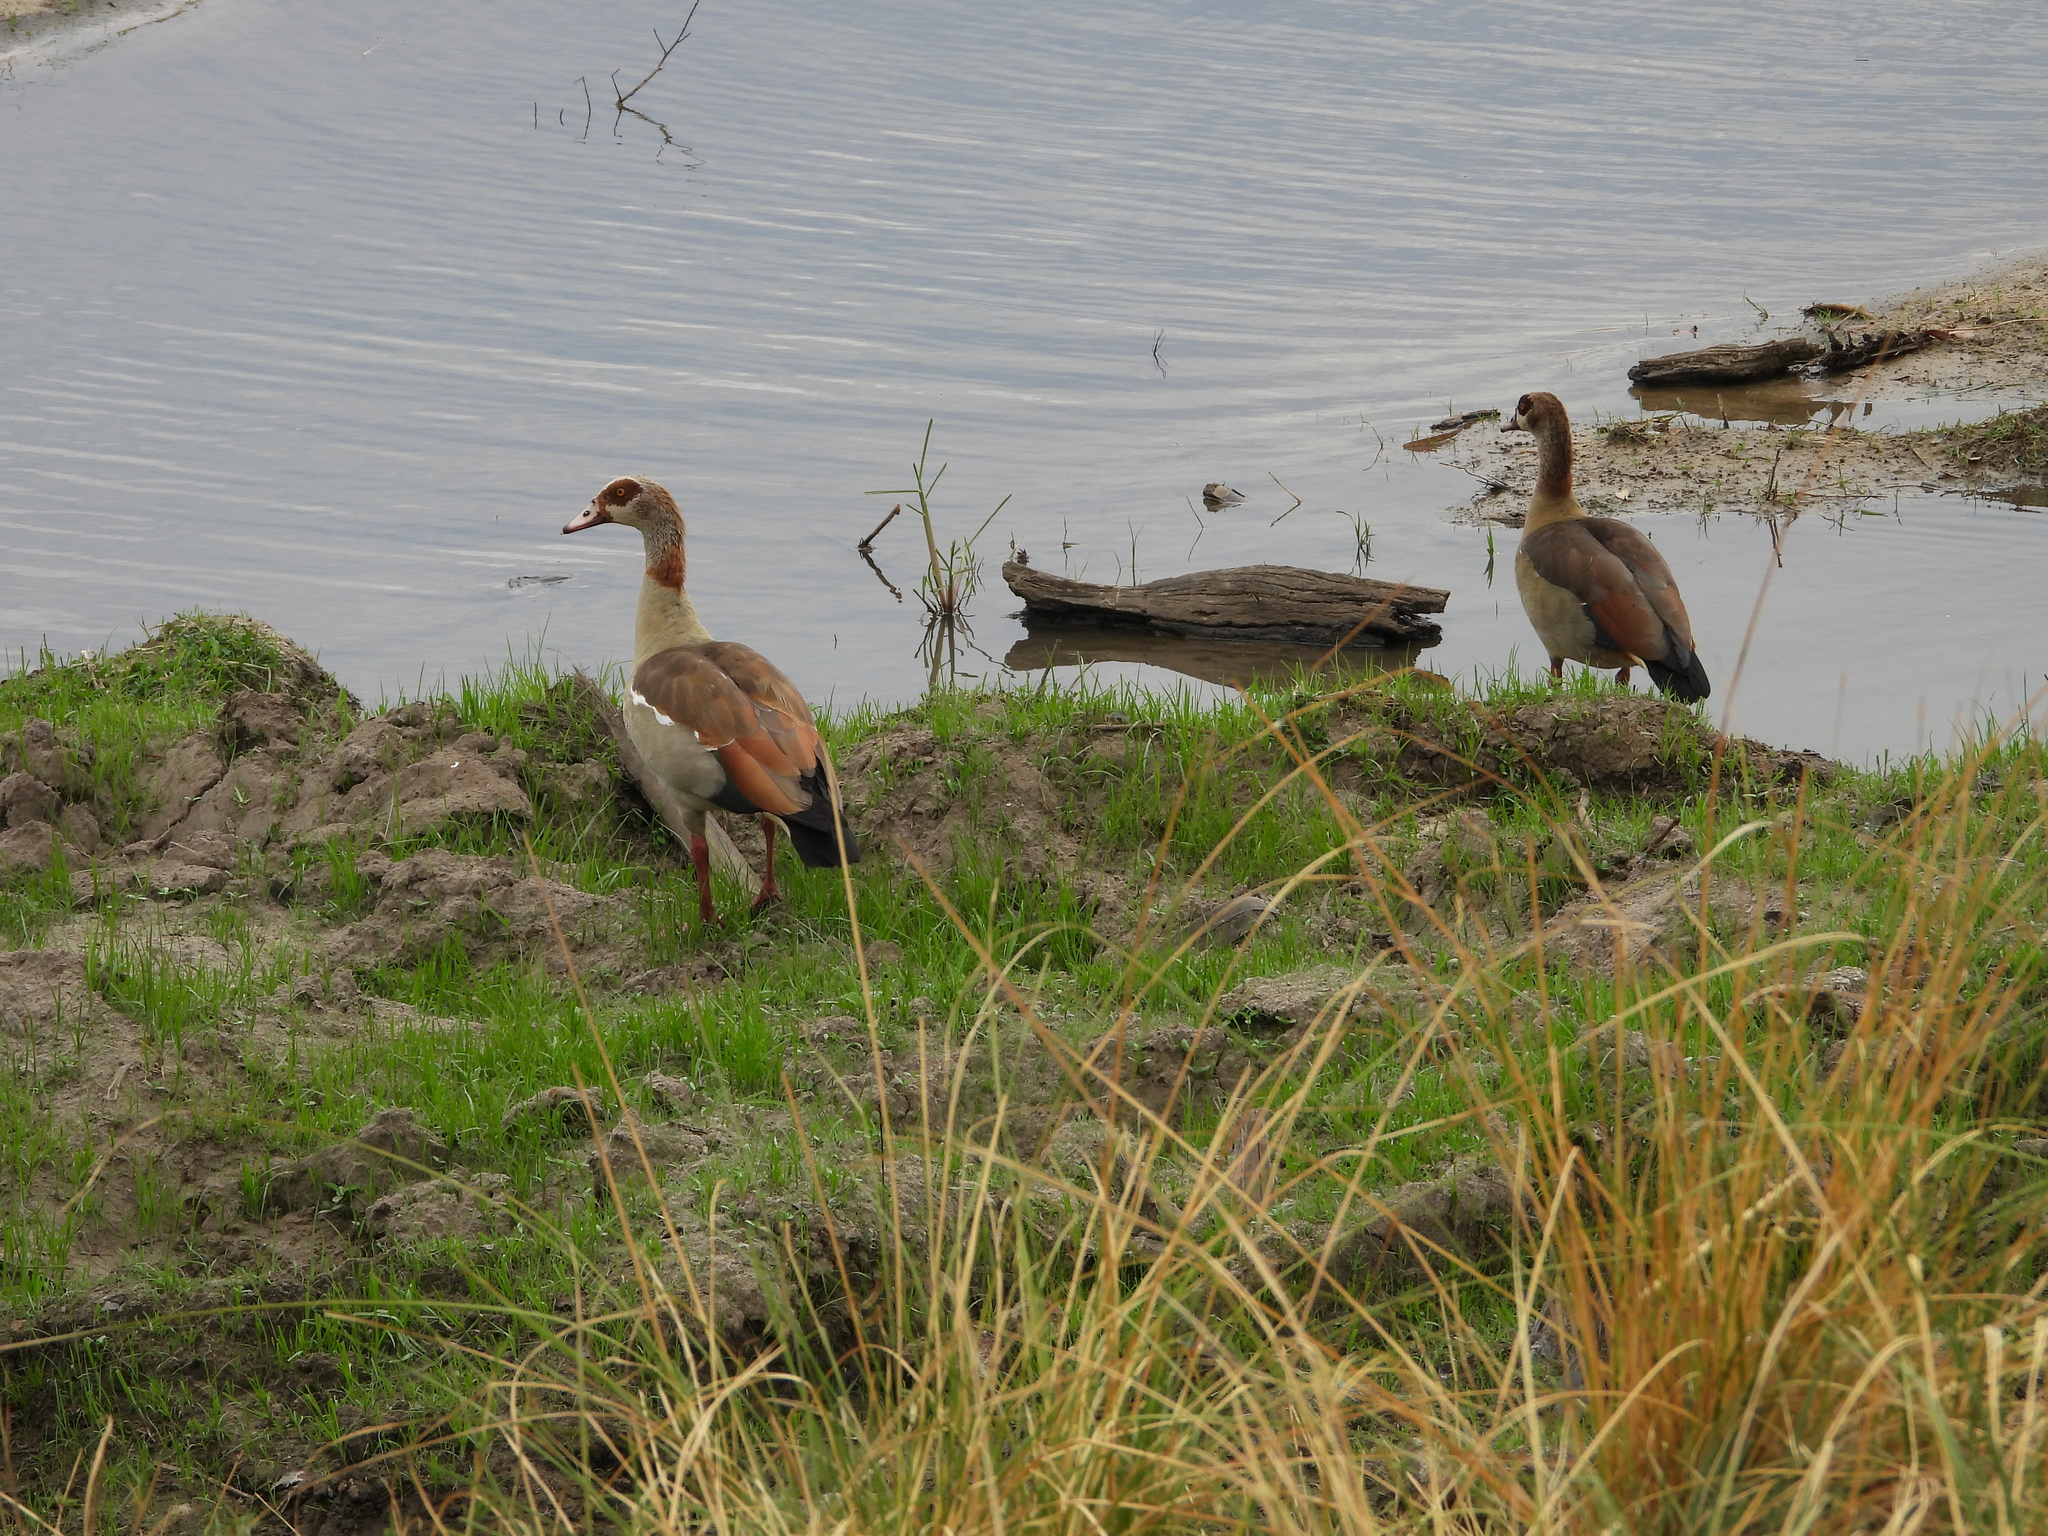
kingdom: Animalia
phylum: Chordata
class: Aves
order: Anseriformes
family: Anatidae
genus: Alopochen
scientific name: Alopochen aegyptiaca
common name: Egyptian goose
